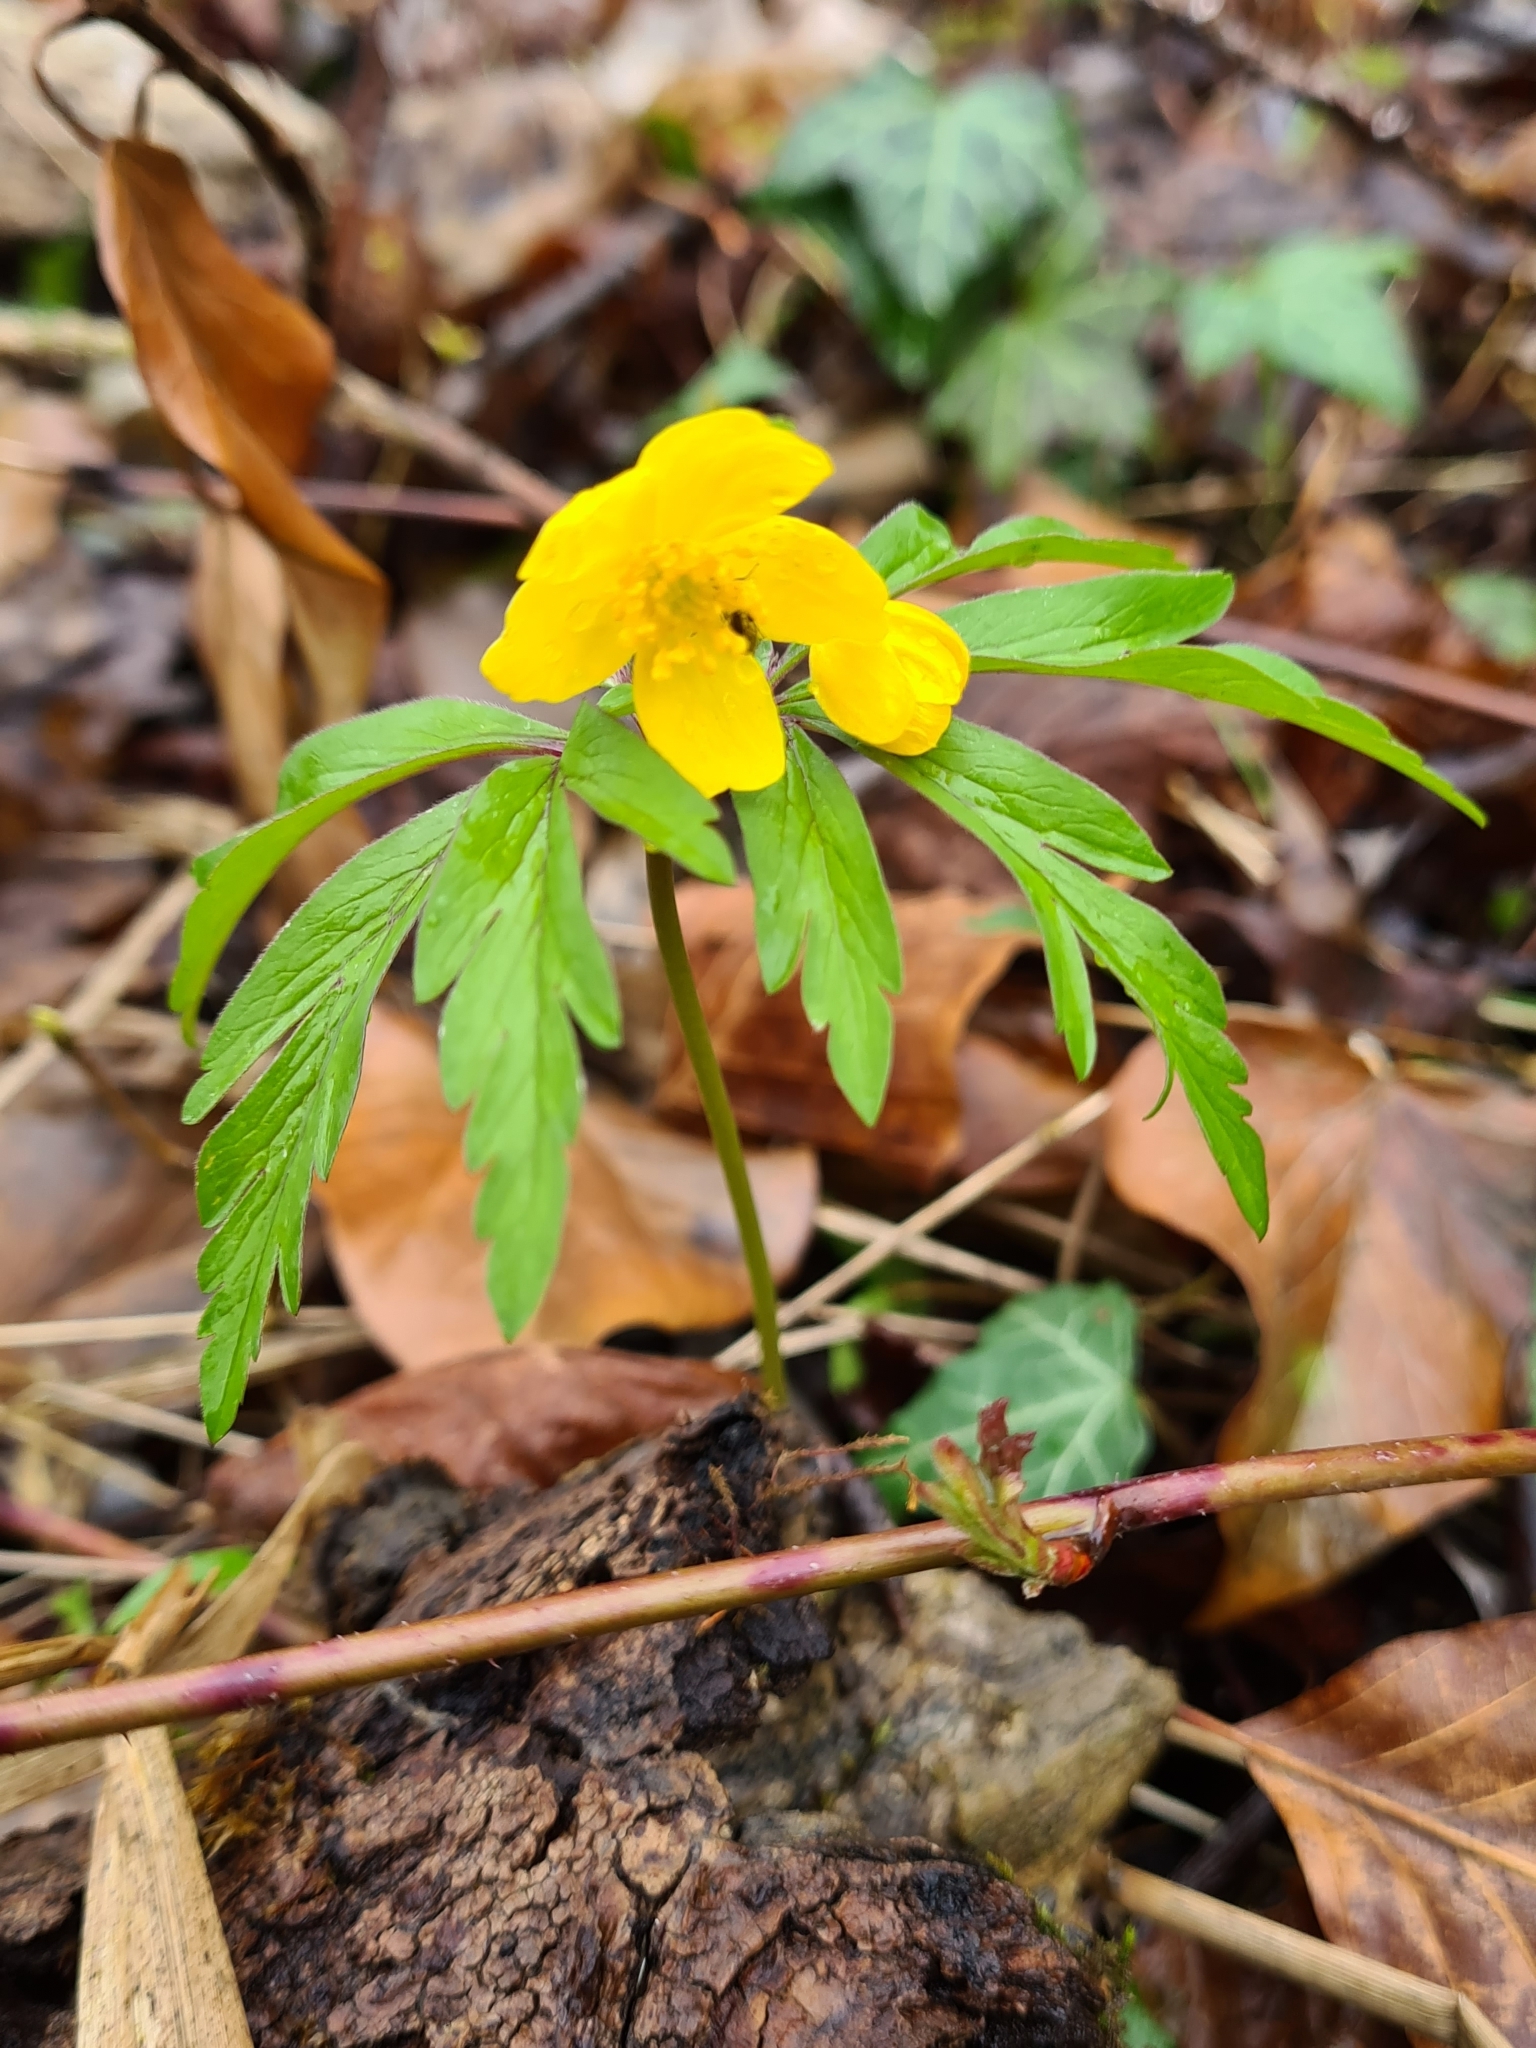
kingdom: Plantae
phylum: Tracheophyta
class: Magnoliopsida
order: Ranunculales
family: Ranunculaceae
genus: Anemone
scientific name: Anemone ranunculoides
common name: Yellow anemone
